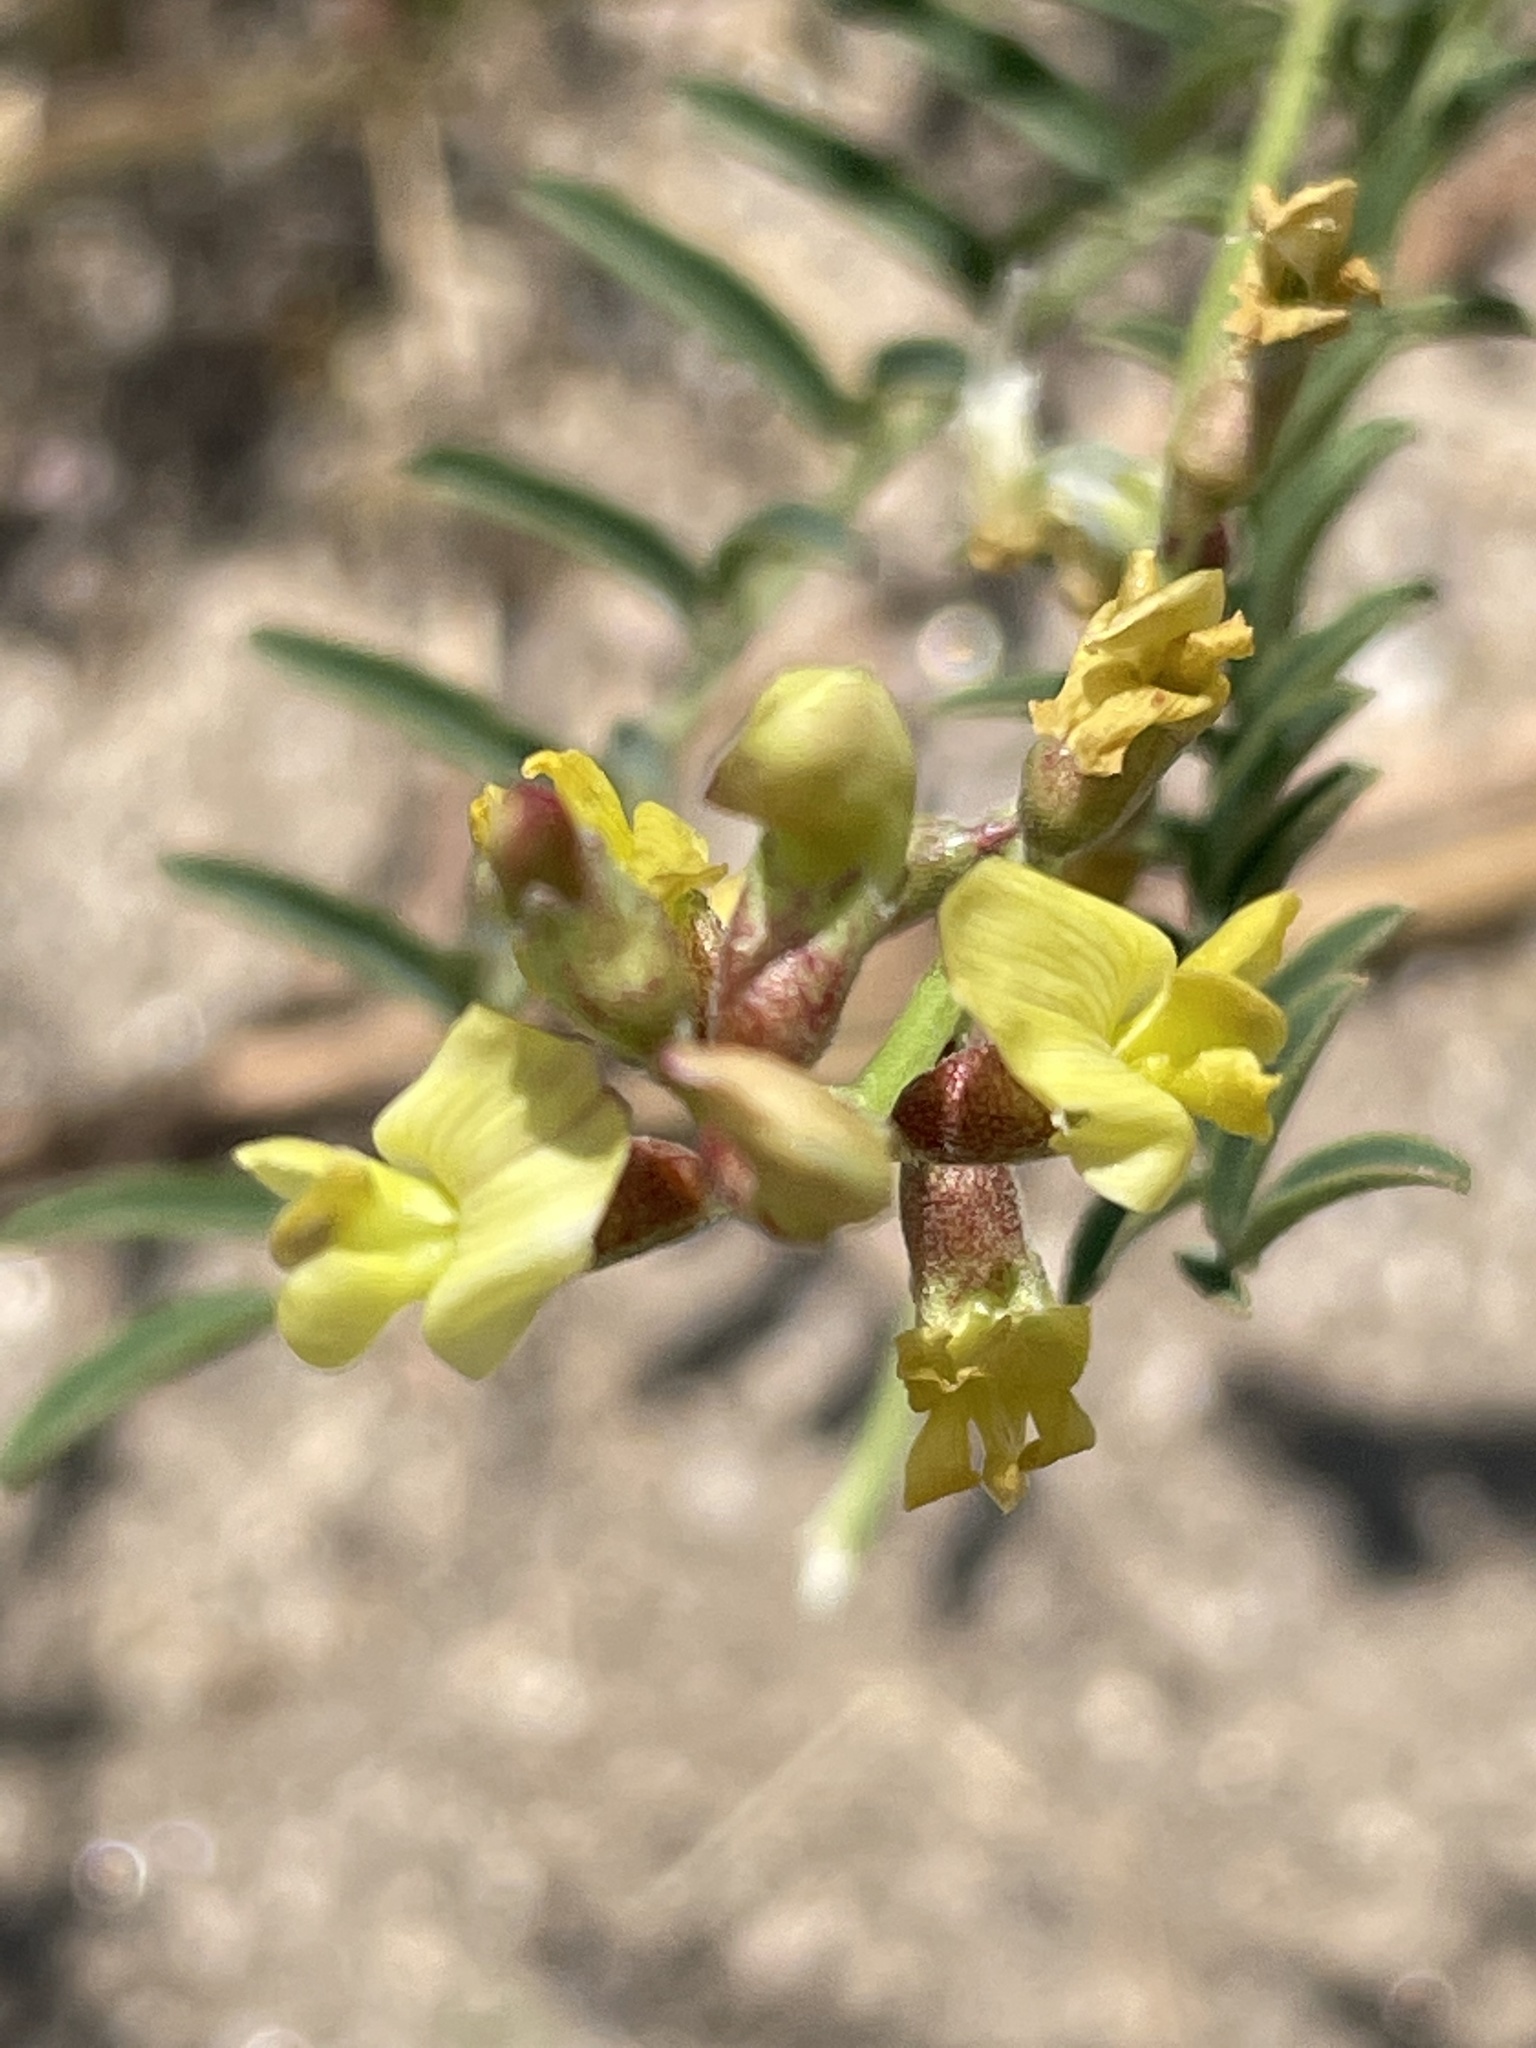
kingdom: Plantae
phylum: Tracheophyta
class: Magnoliopsida
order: Fabales
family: Fabaceae
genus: Astragalus
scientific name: Astragalus douglasii
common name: Jacumba milkvetch
